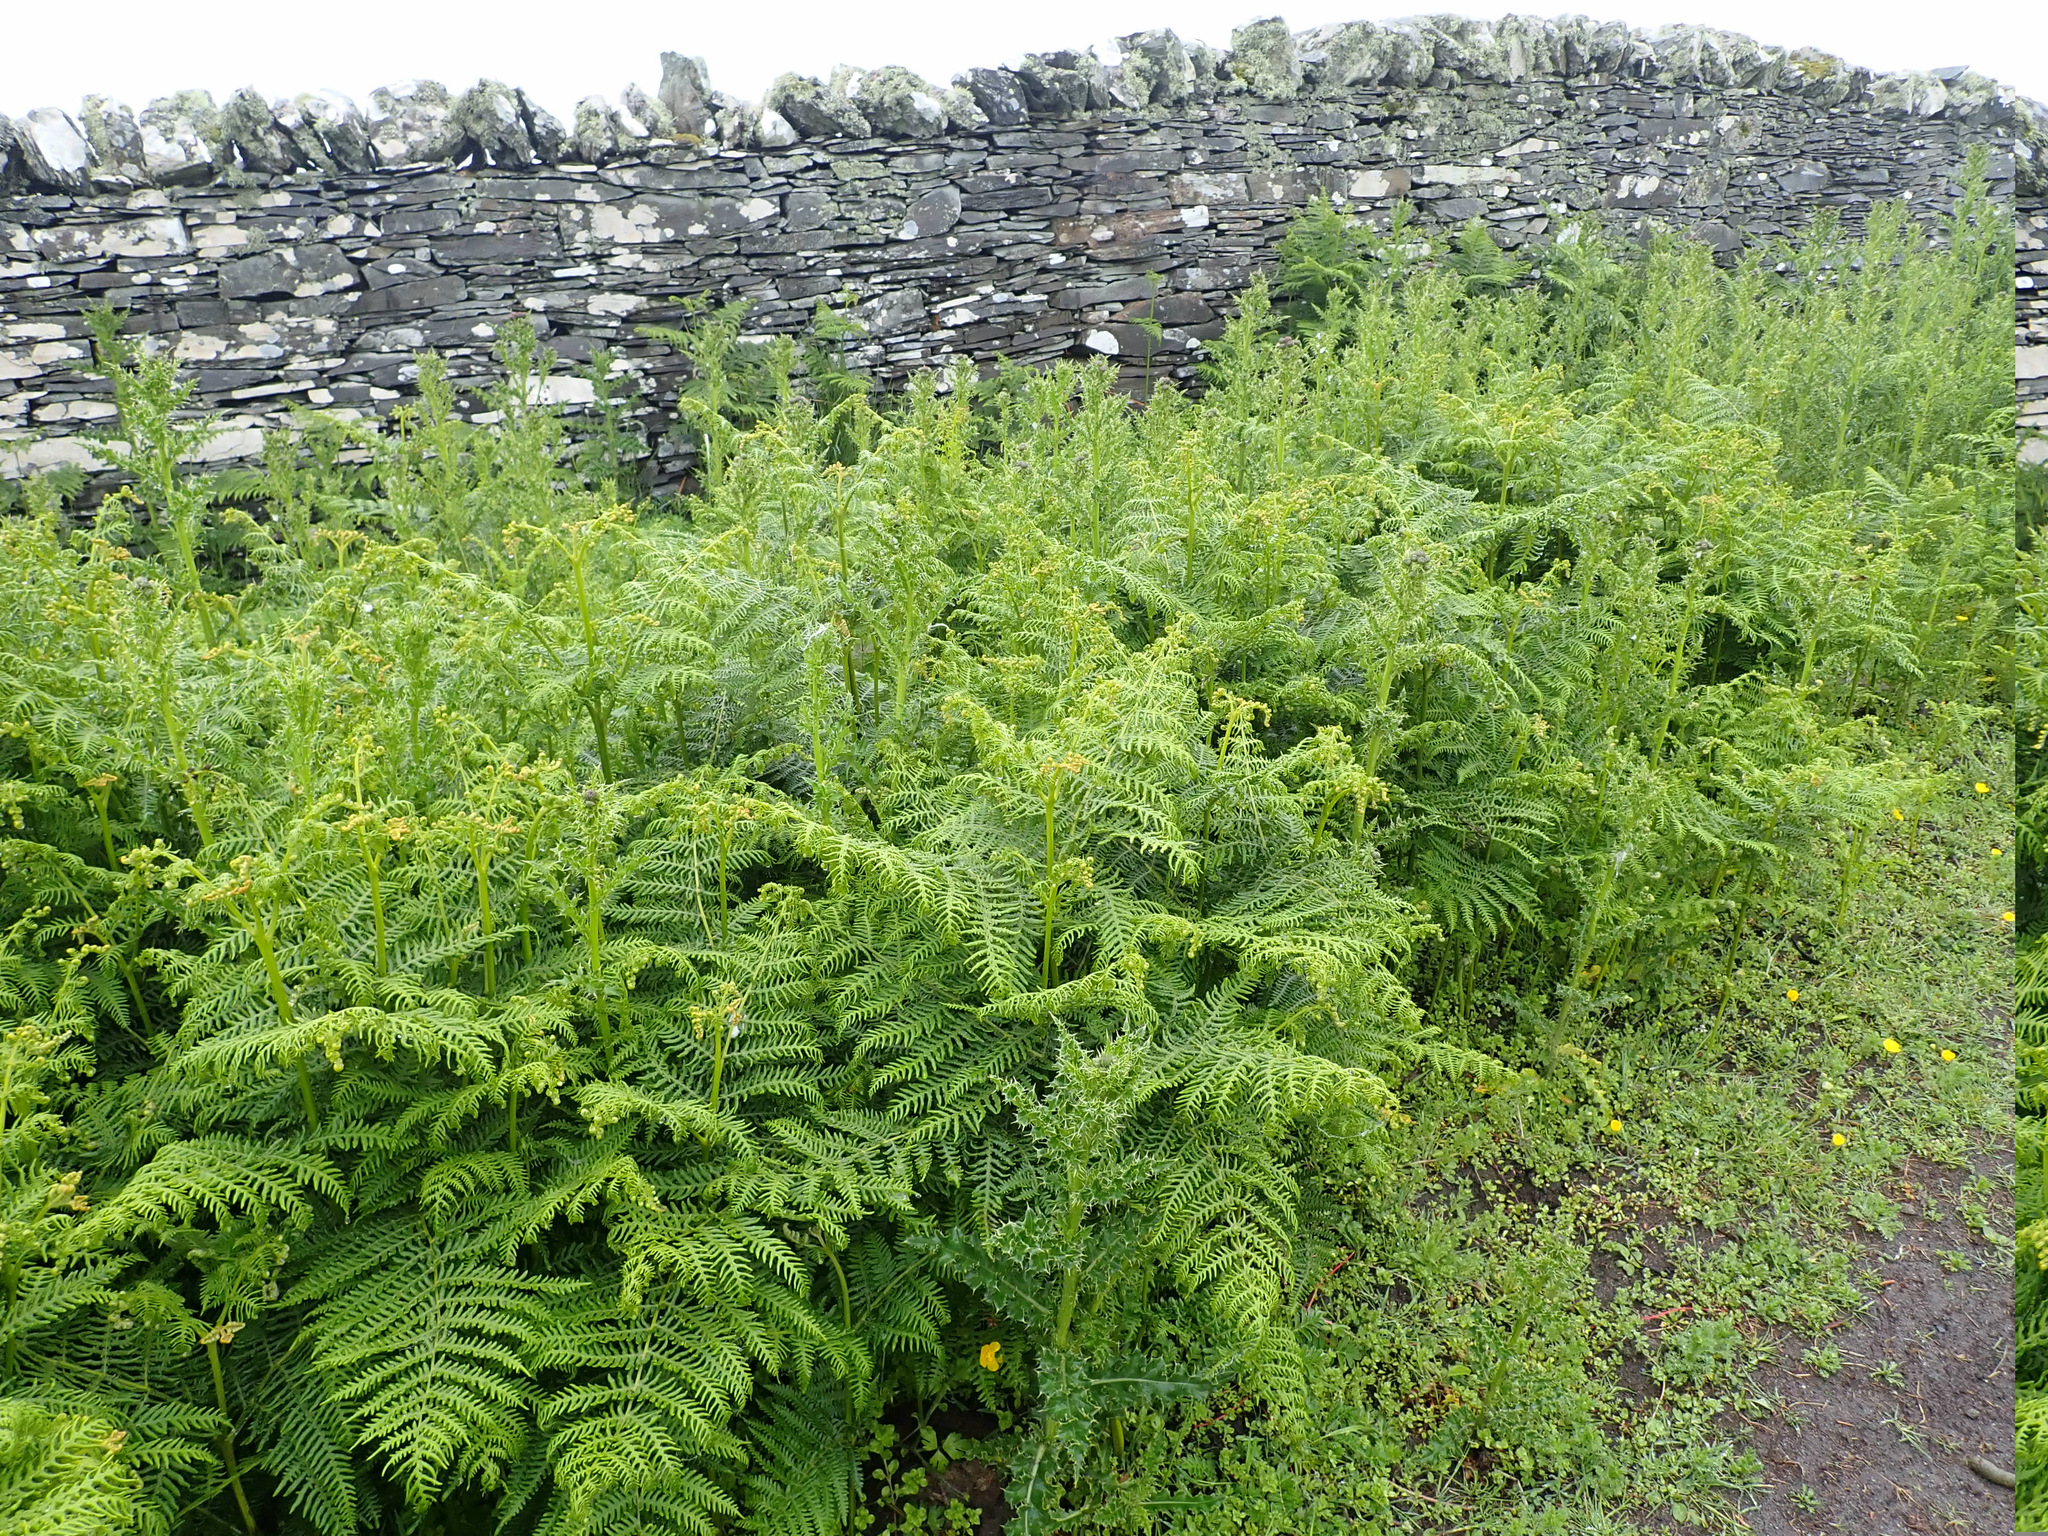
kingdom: Plantae
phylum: Tracheophyta
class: Polypodiopsida
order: Polypodiales
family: Dennstaedtiaceae
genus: Pteridium
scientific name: Pteridium aquilinum
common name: Bracken
